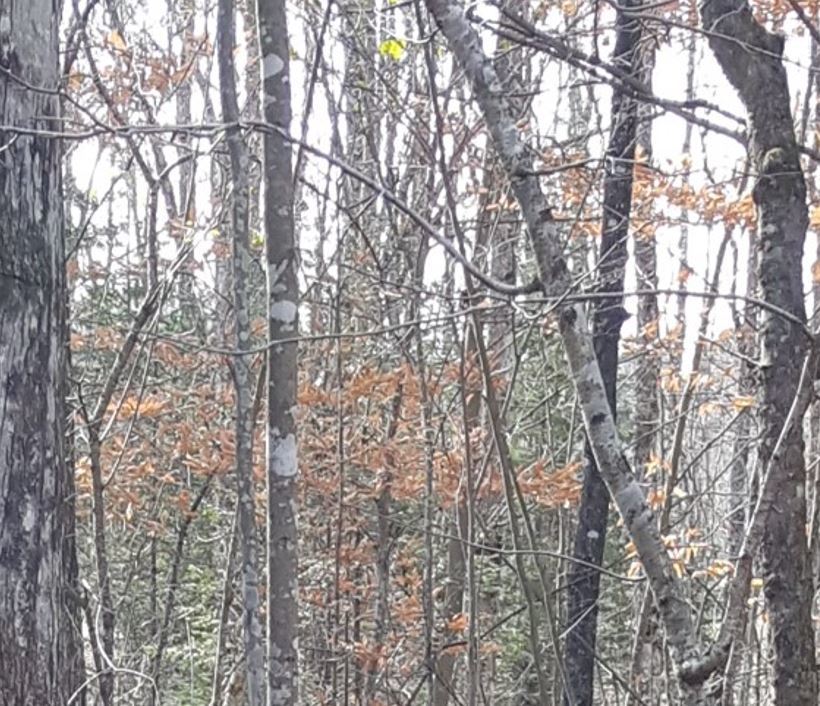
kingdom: Plantae
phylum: Tracheophyta
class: Magnoliopsida
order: Fagales
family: Fagaceae
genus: Fagus
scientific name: Fagus grandifolia
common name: American beech
